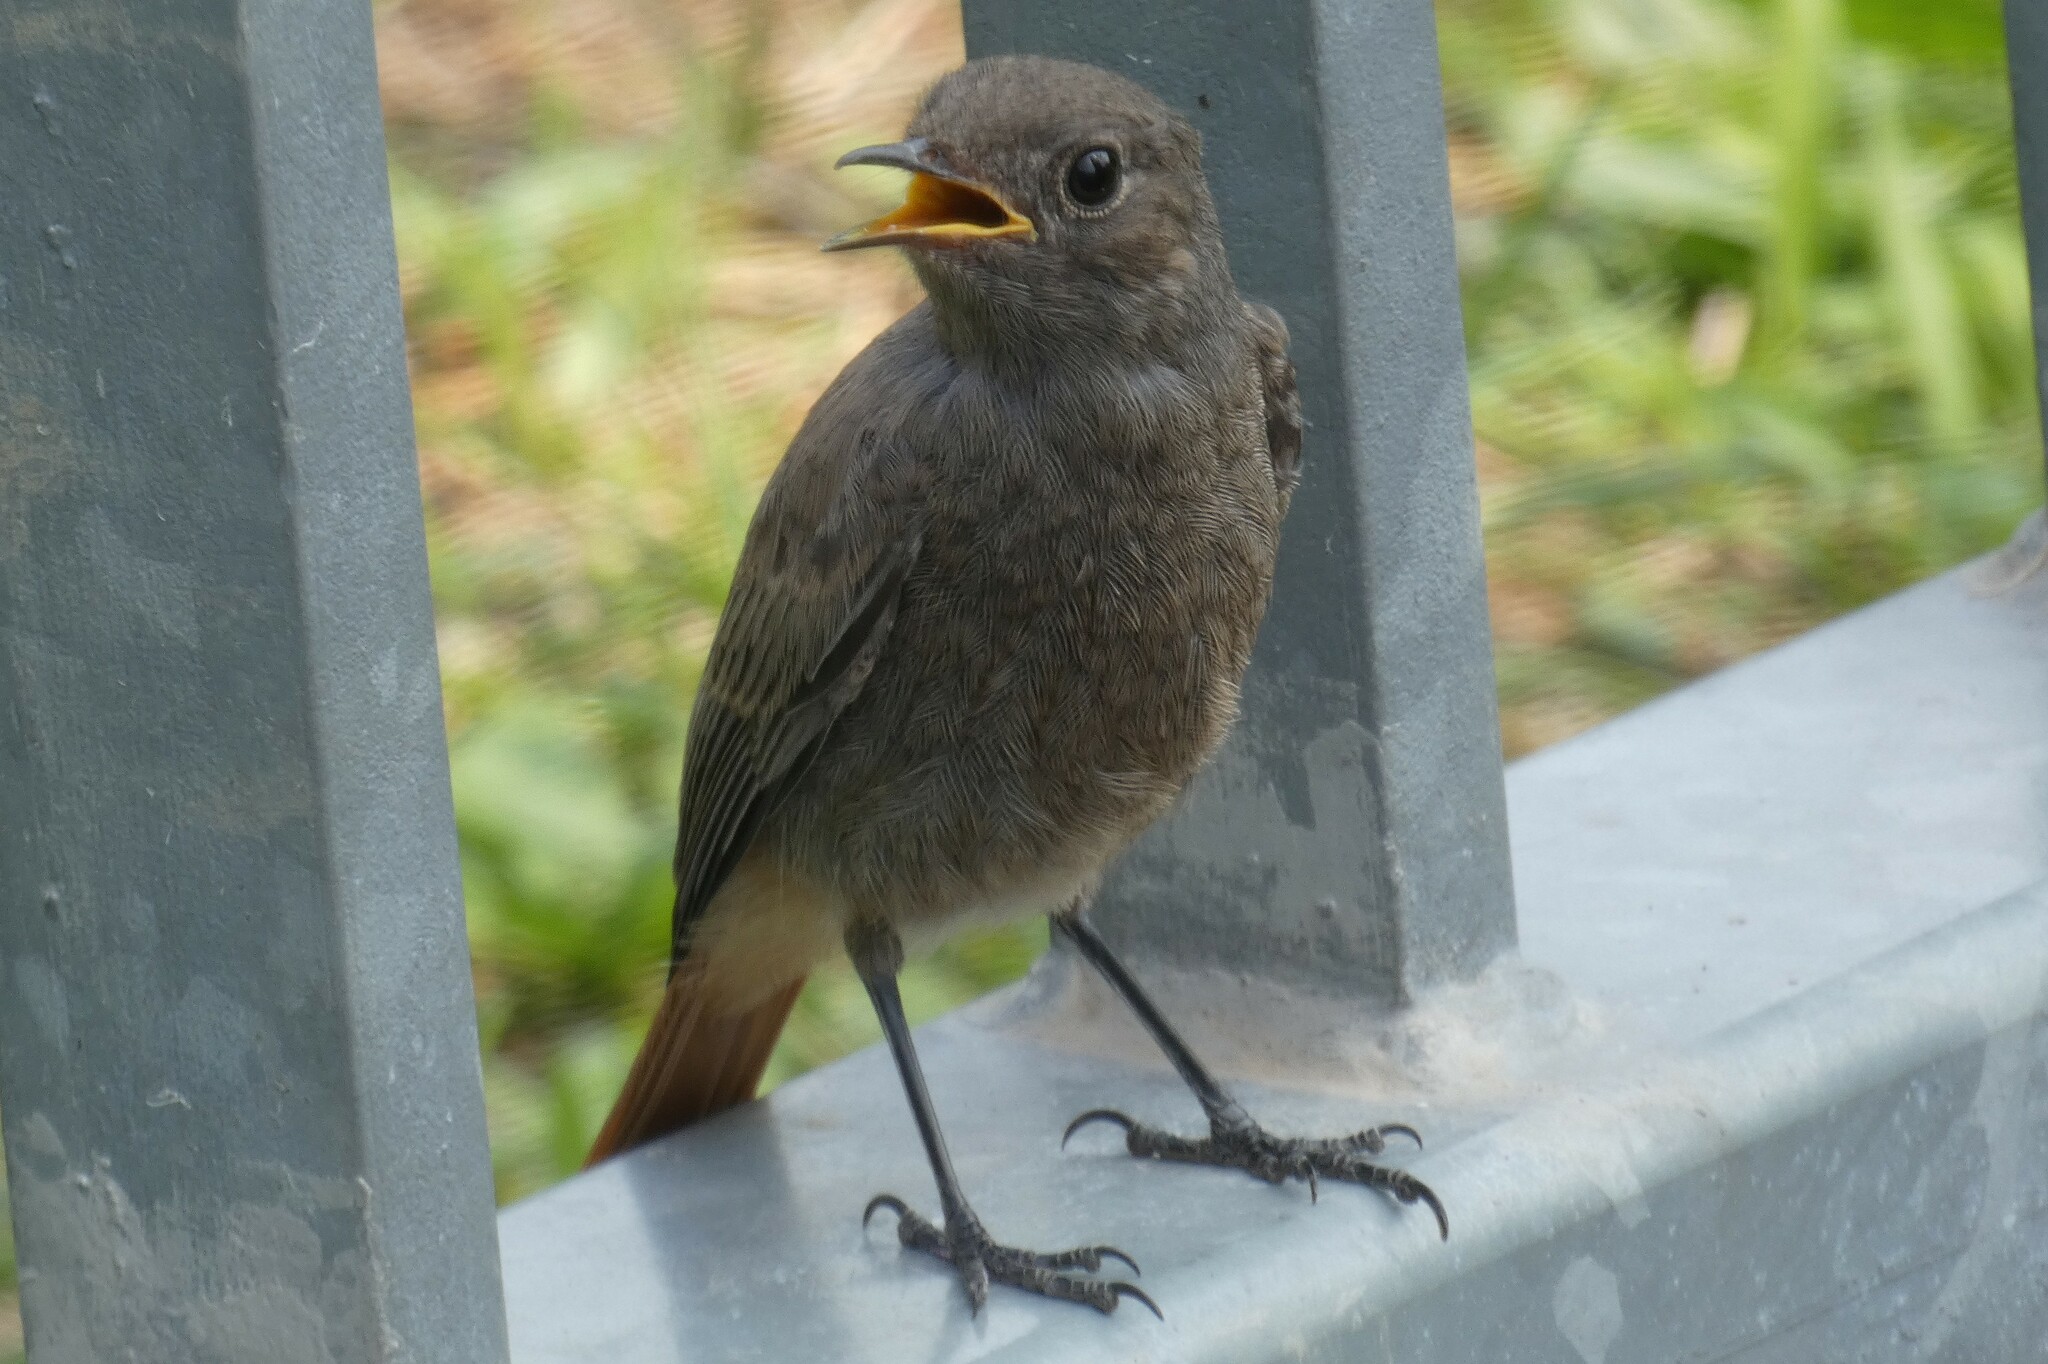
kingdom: Animalia
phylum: Chordata
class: Aves
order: Passeriformes
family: Muscicapidae
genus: Phoenicurus
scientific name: Phoenicurus ochruros
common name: Black redstart
